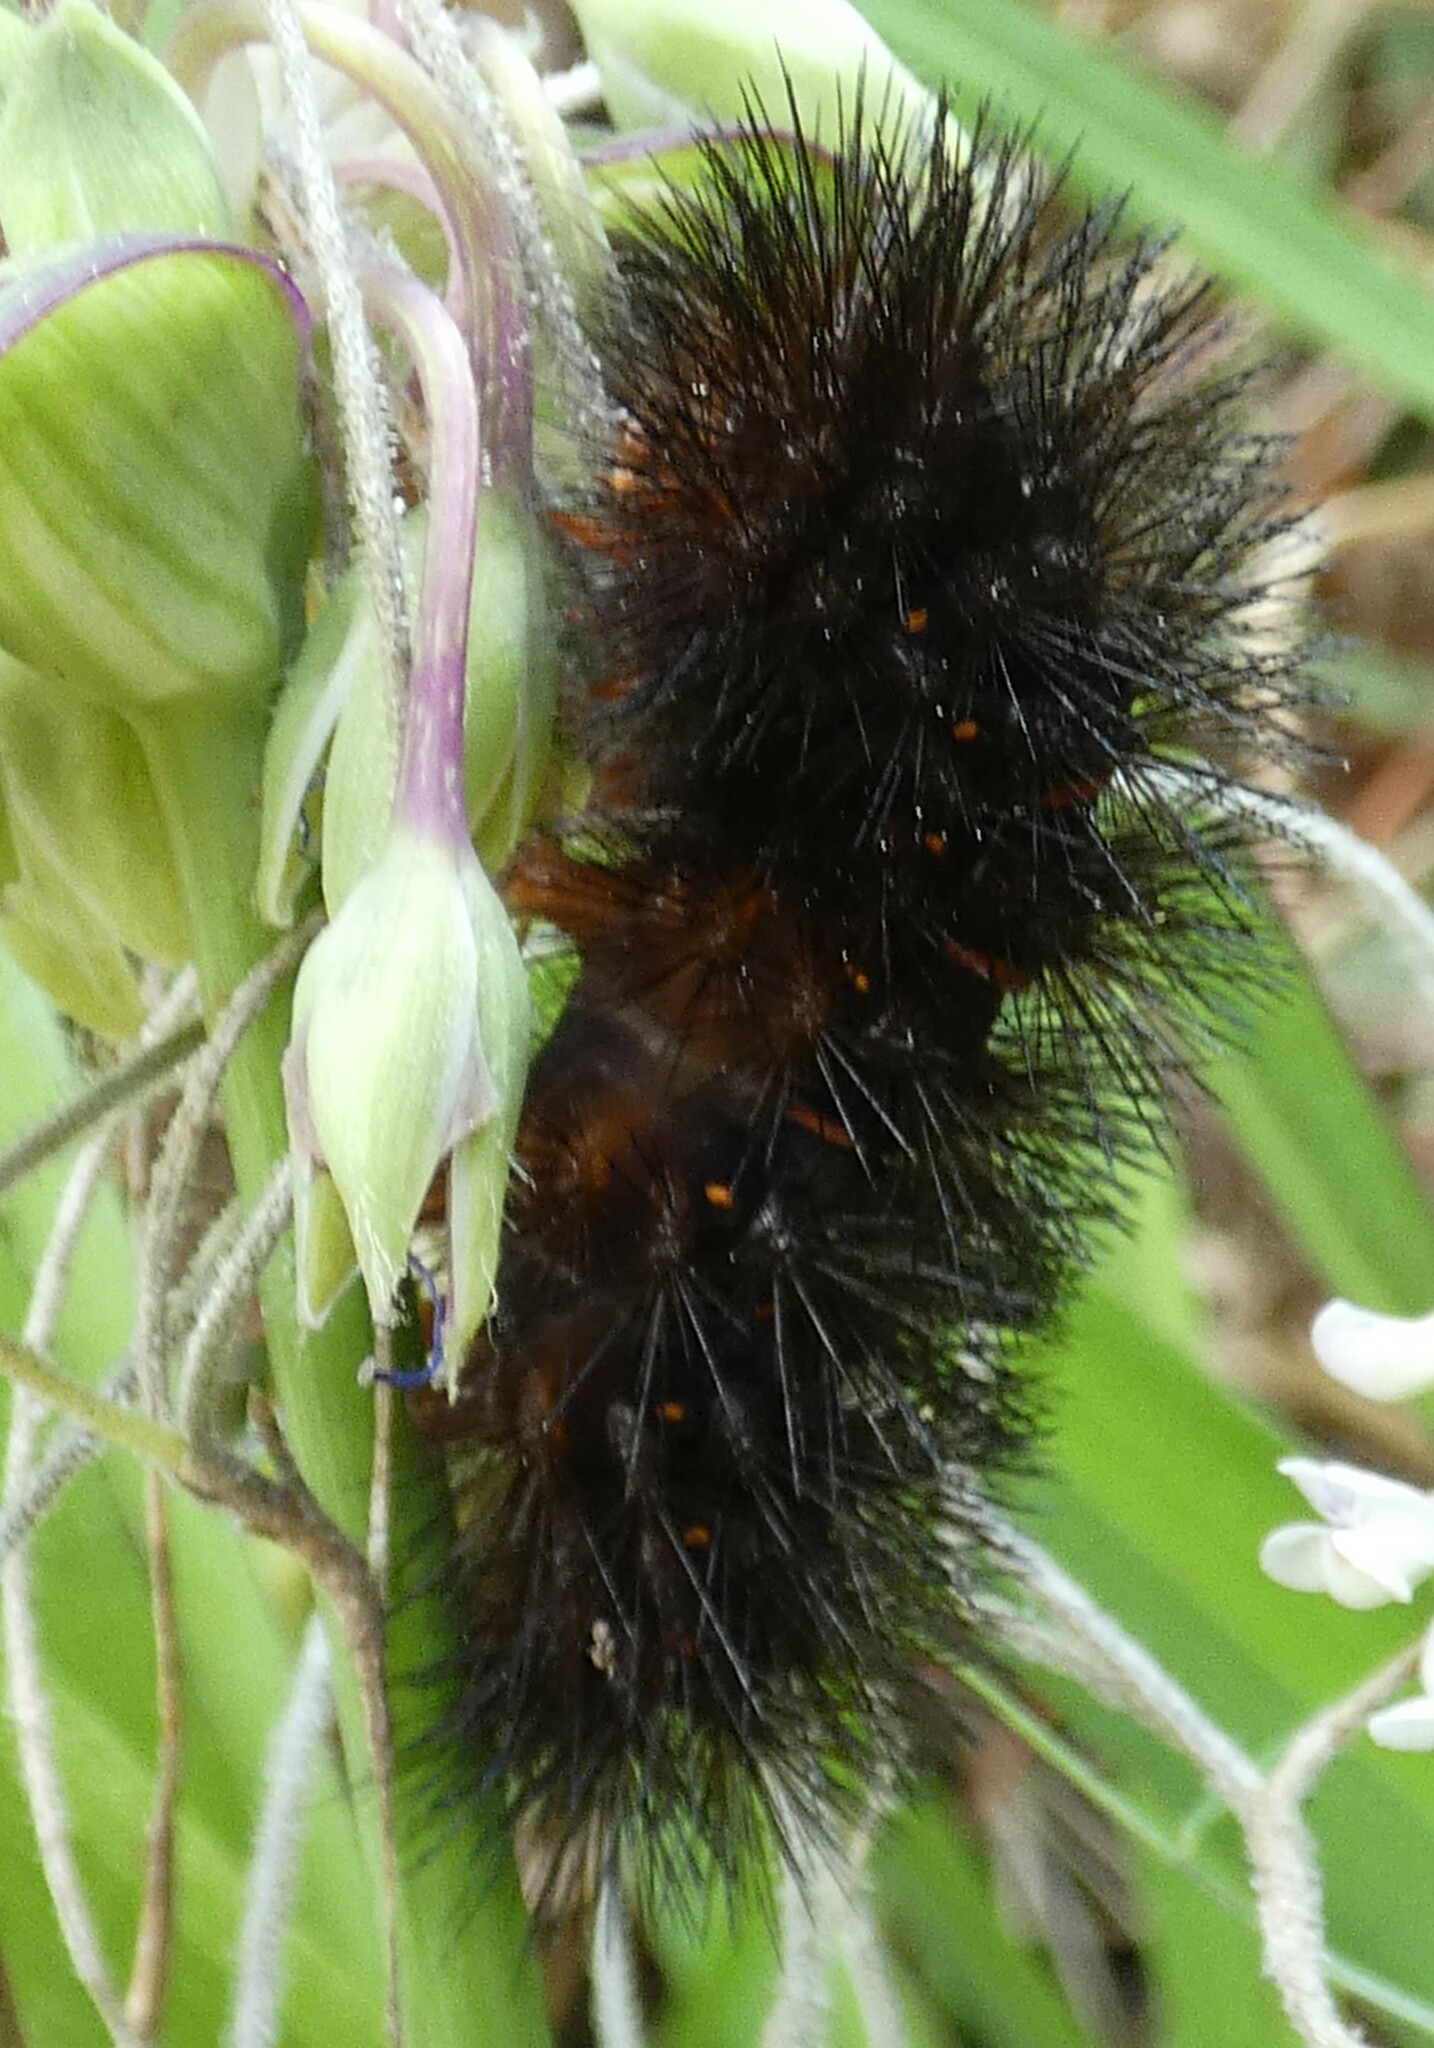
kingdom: Animalia
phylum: Arthropoda
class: Insecta
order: Lepidoptera
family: Erebidae
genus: Hypercompe
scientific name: Hypercompe scribonia
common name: Giant leopard moth
